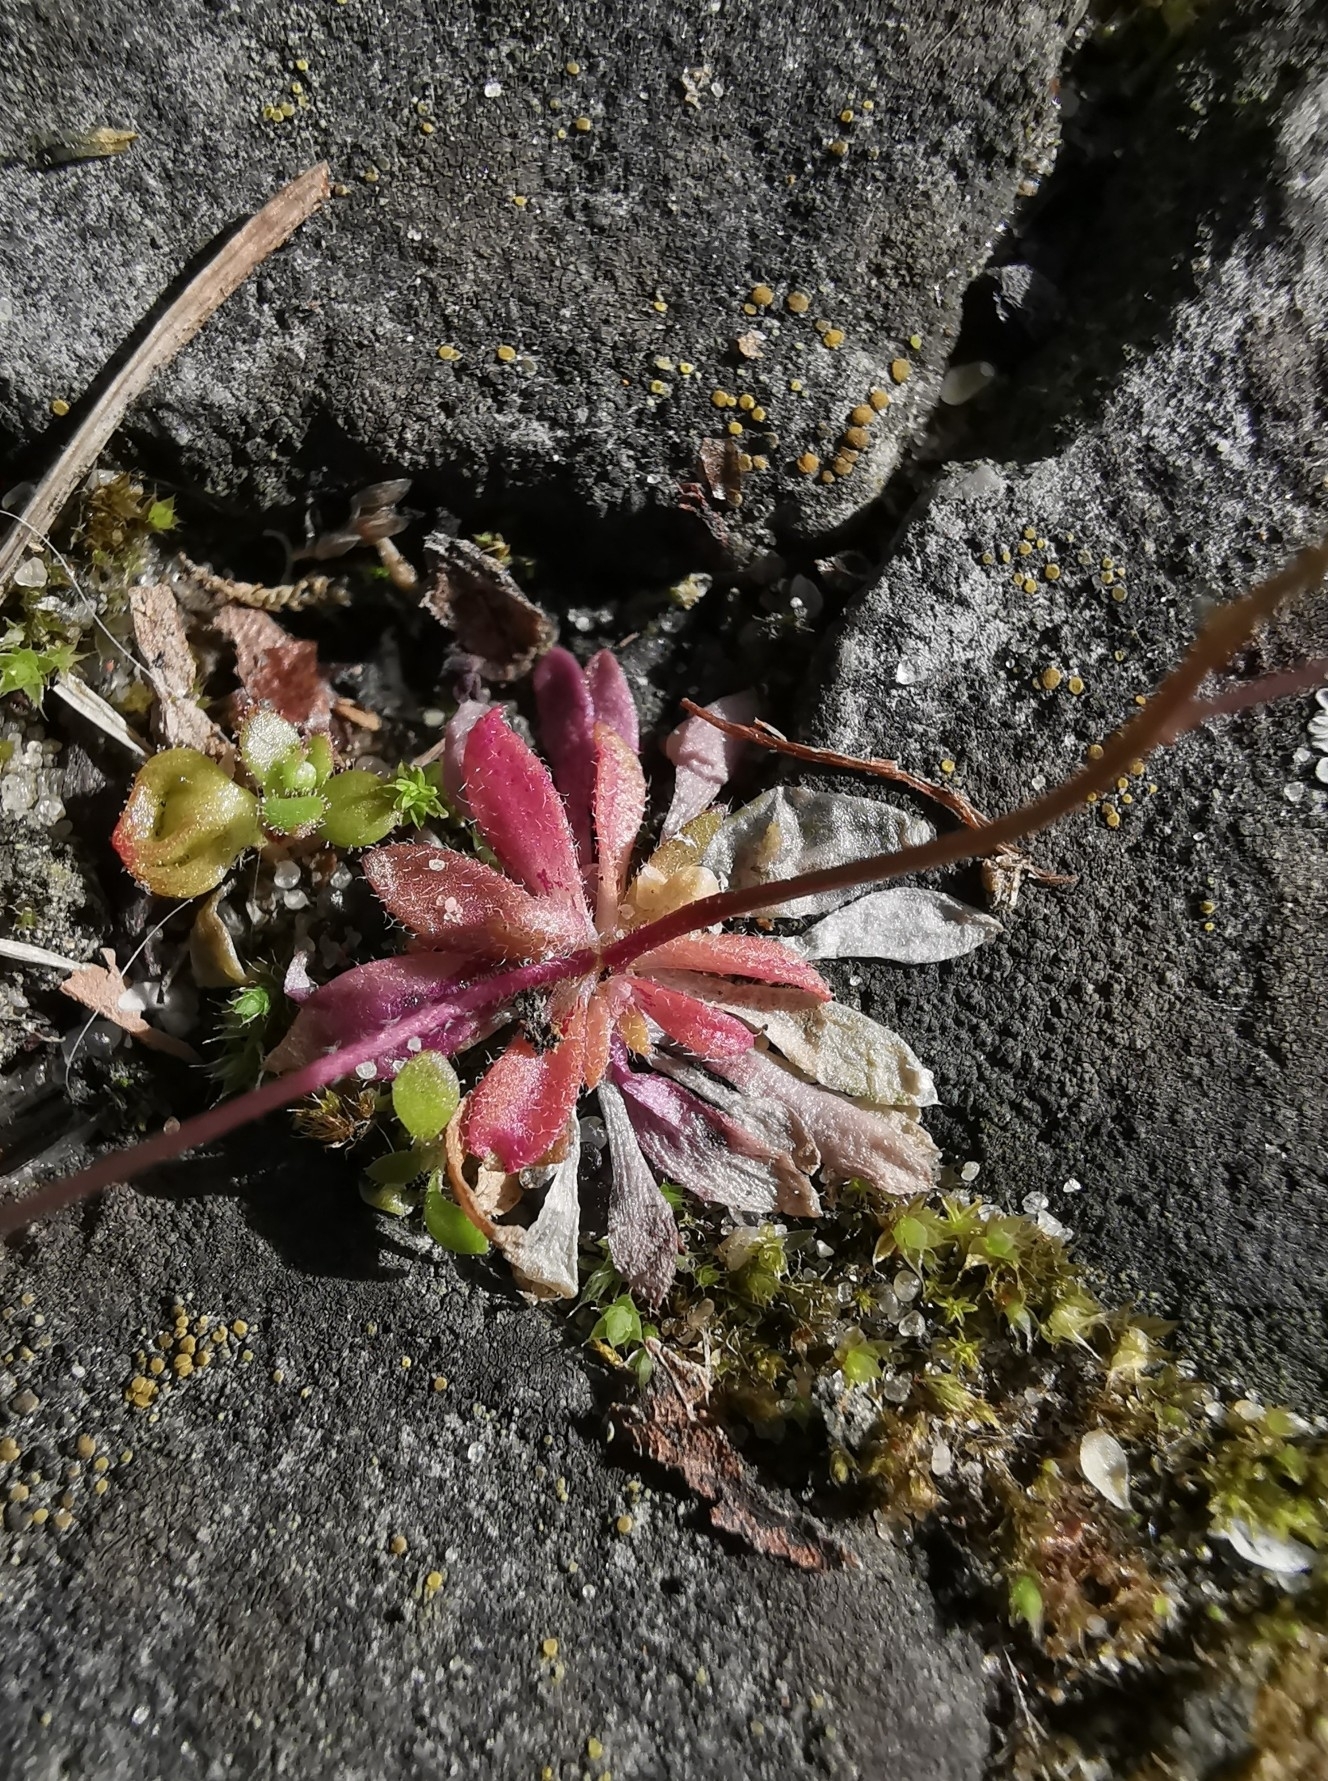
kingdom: Plantae
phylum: Tracheophyta
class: Magnoliopsida
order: Brassicales
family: Brassicaceae
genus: Draba
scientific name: Draba verna
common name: Spring draba
